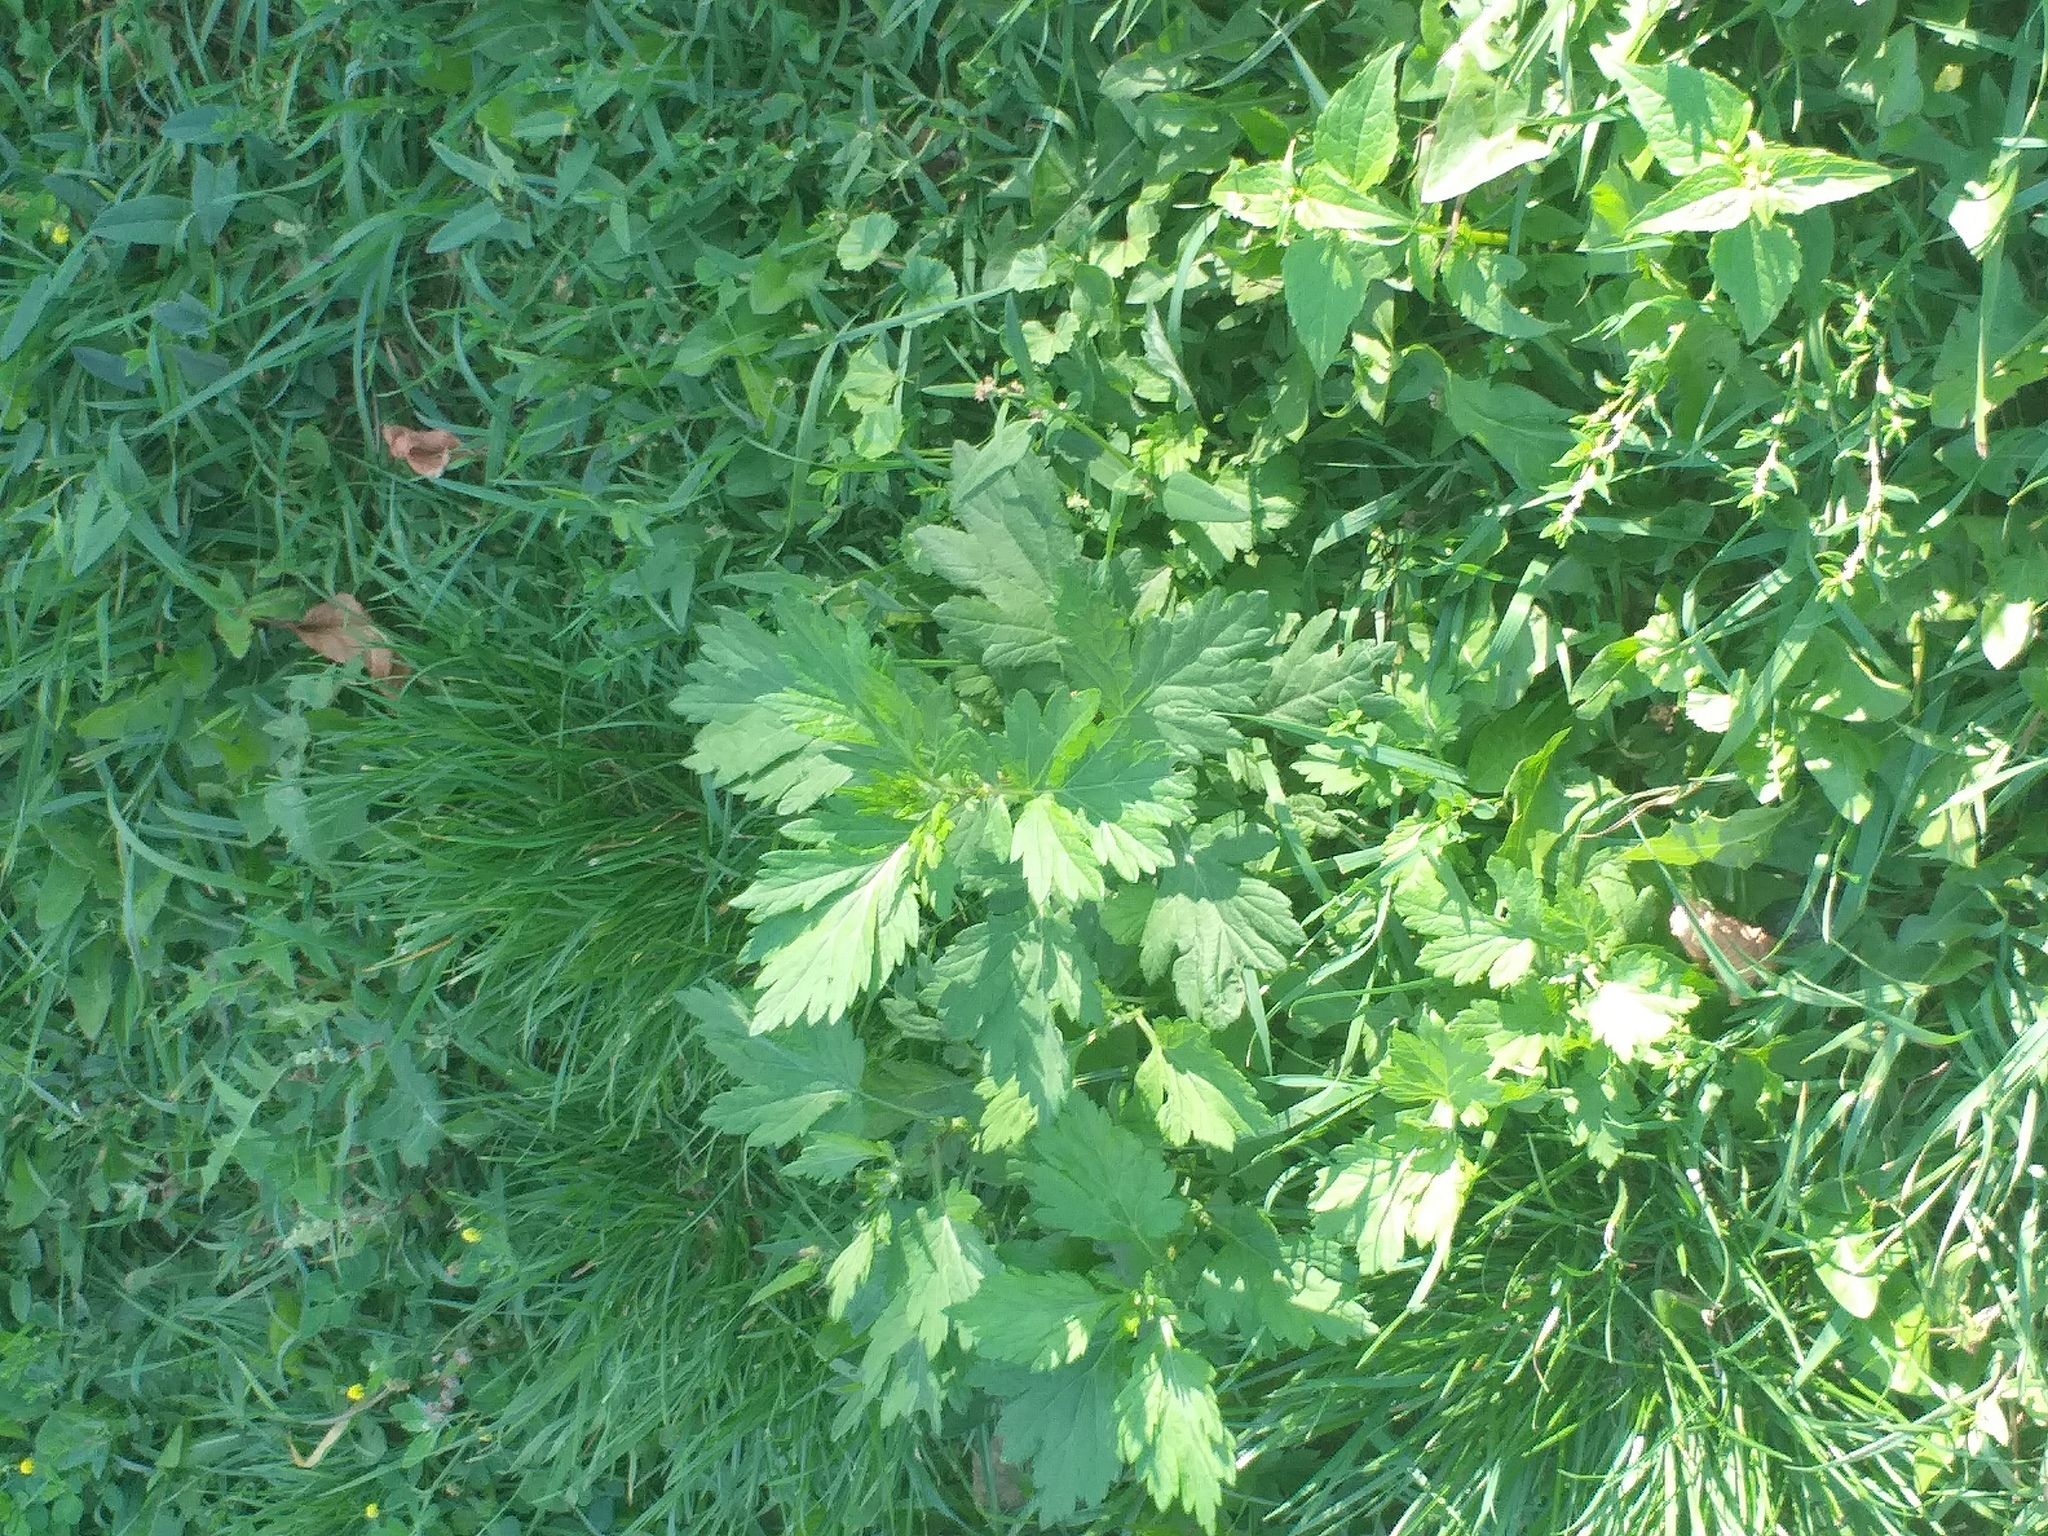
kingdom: Plantae
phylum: Tracheophyta
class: Magnoliopsida
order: Asterales
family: Asteraceae
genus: Artemisia
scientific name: Artemisia vulgaris
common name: Mugwort
